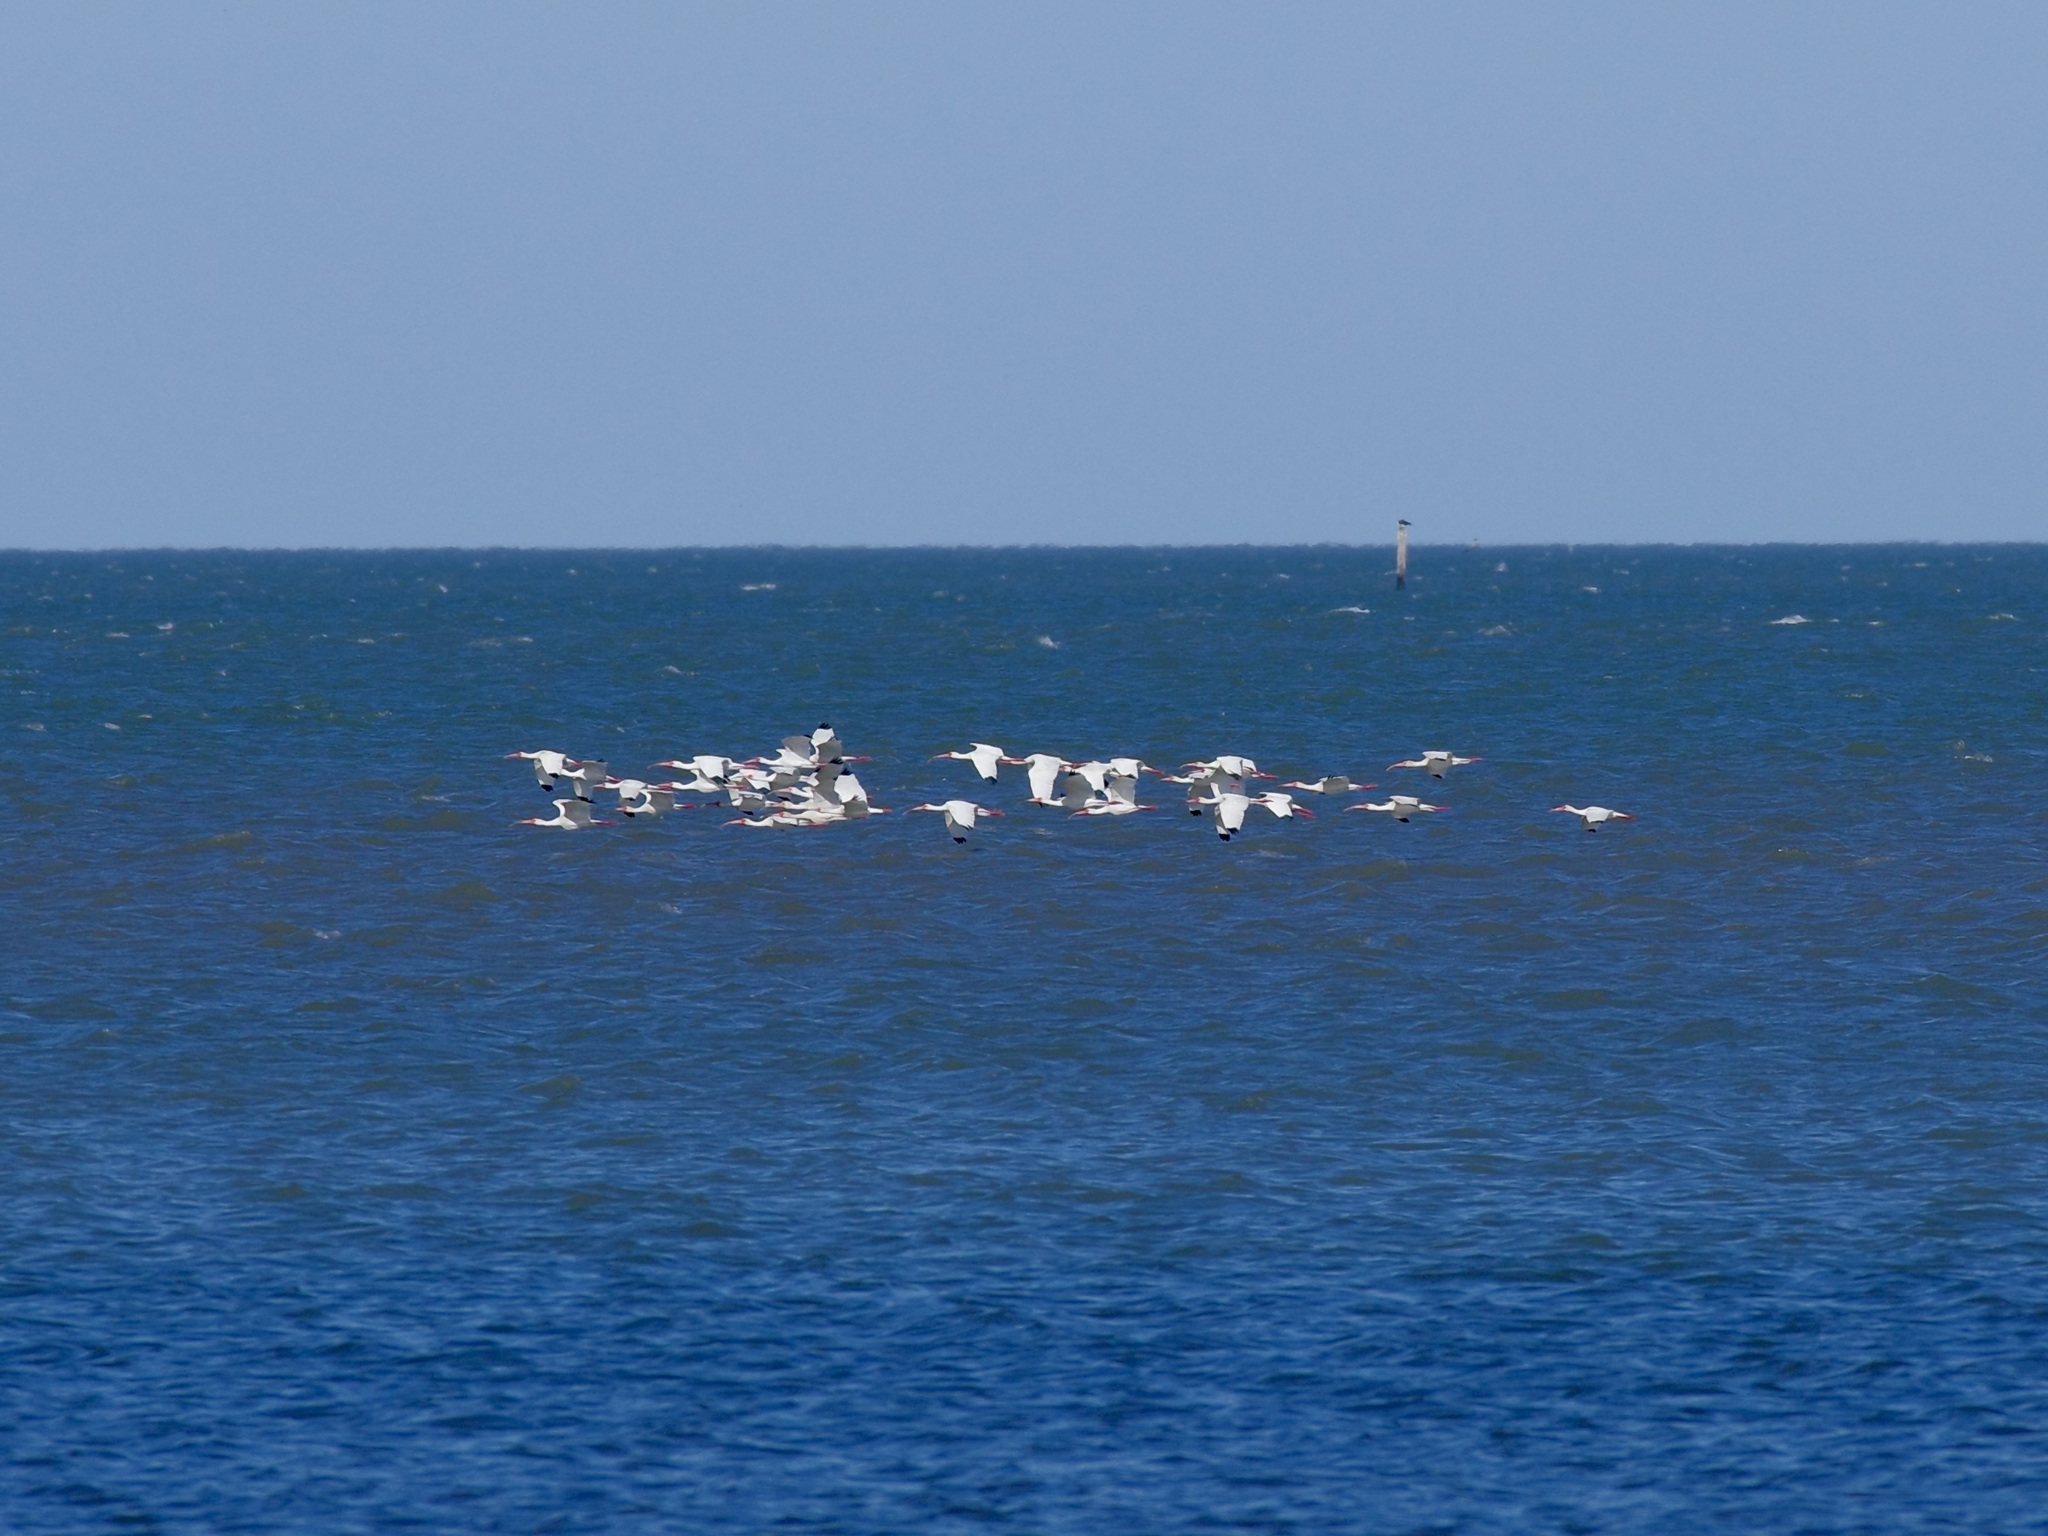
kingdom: Animalia
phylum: Chordata
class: Aves
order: Pelecaniformes
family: Threskiornithidae
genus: Eudocimus
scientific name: Eudocimus albus
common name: White ibis
